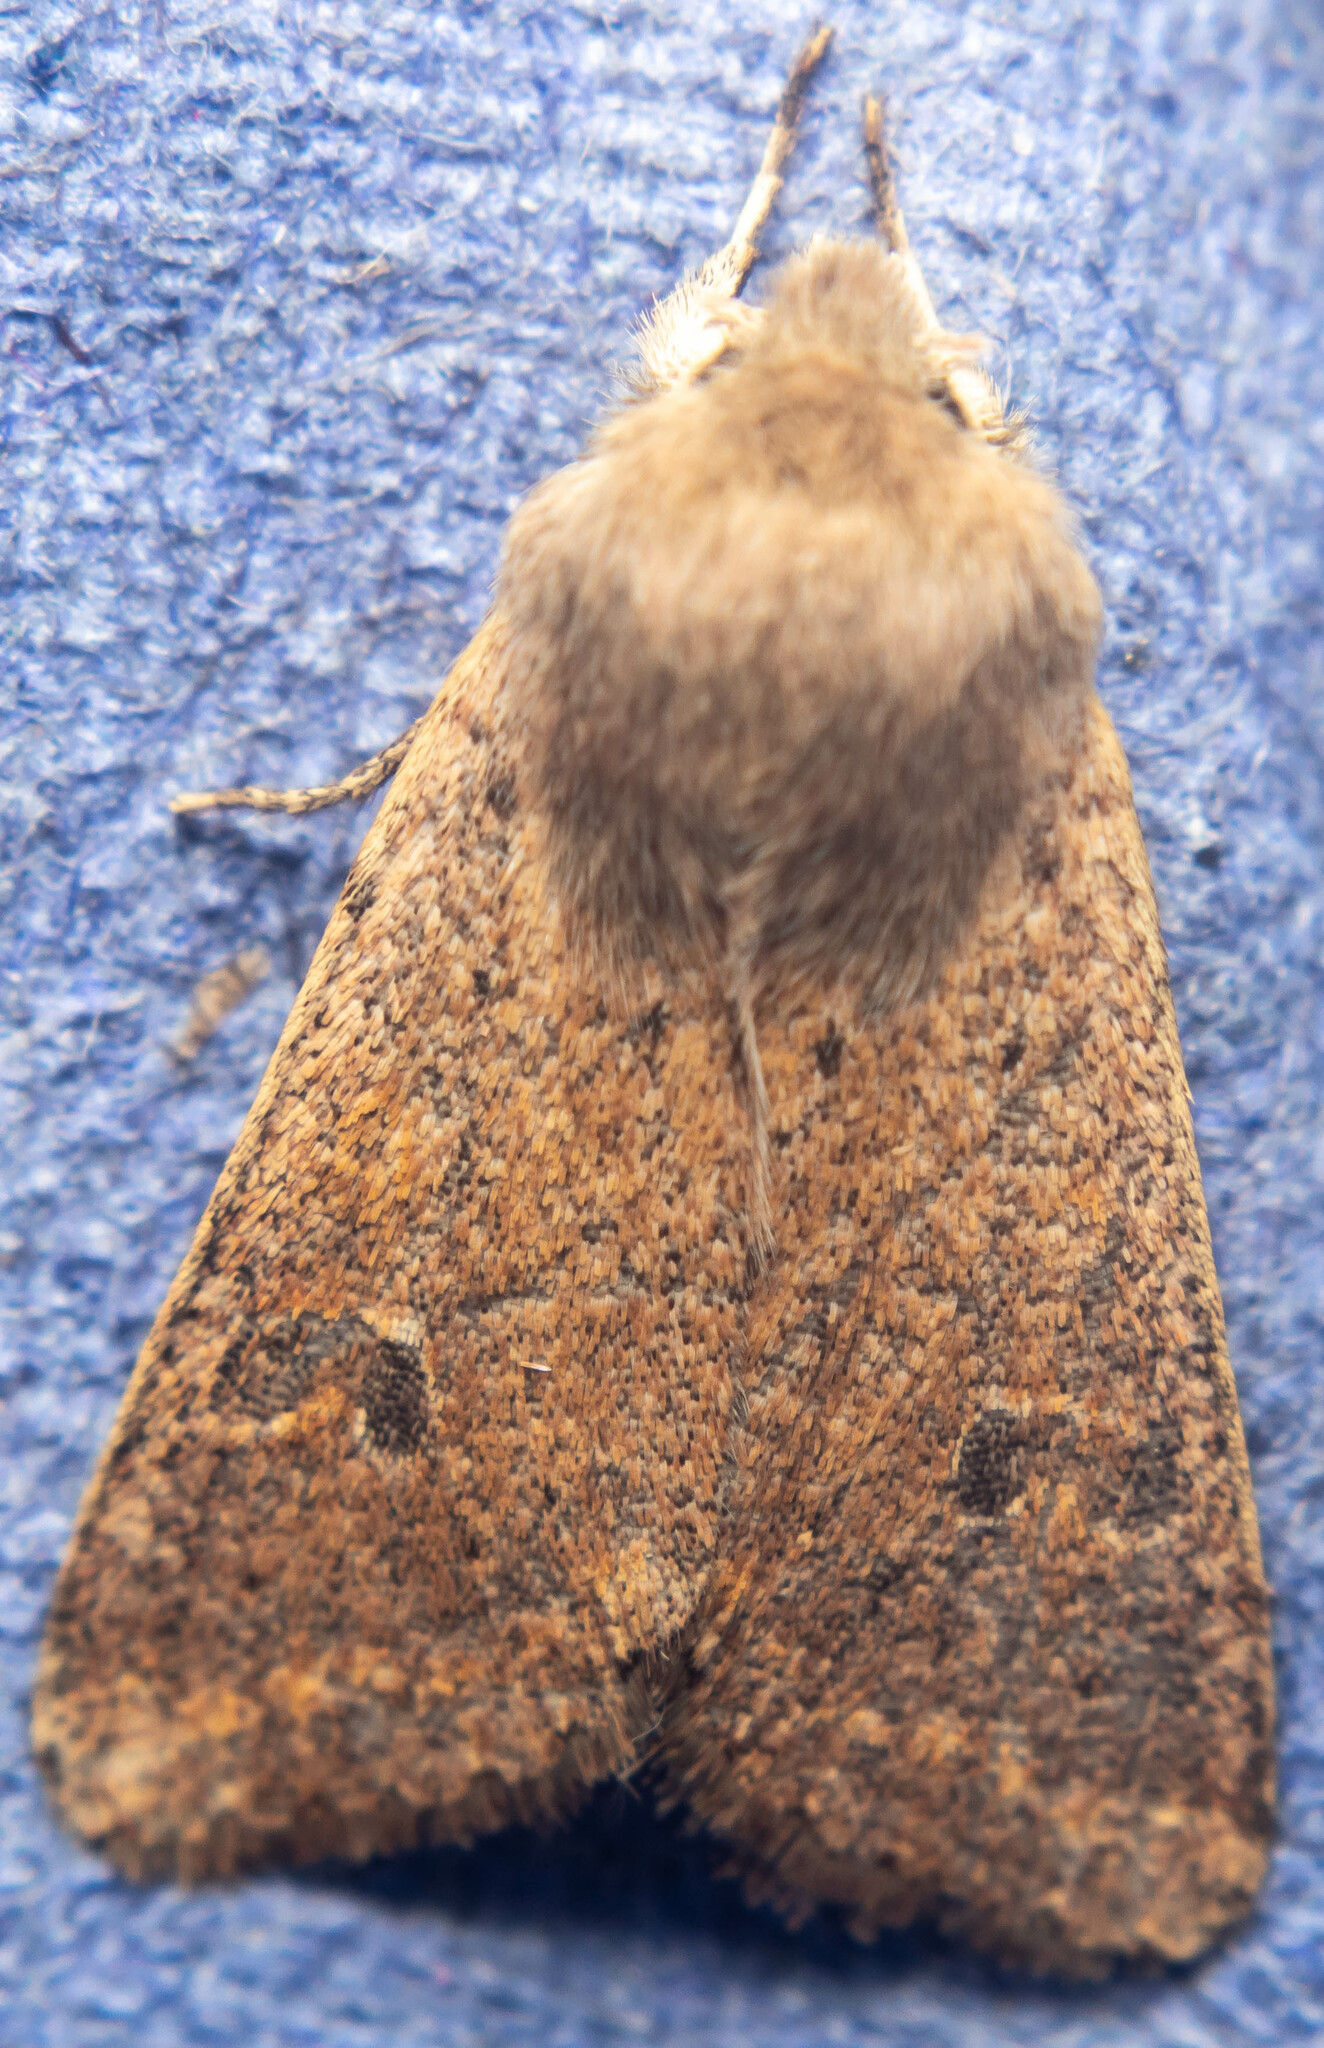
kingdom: Animalia
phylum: Arthropoda
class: Insecta
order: Lepidoptera
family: Noctuidae
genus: Orthosia
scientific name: Orthosia cruda
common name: Small quaker
